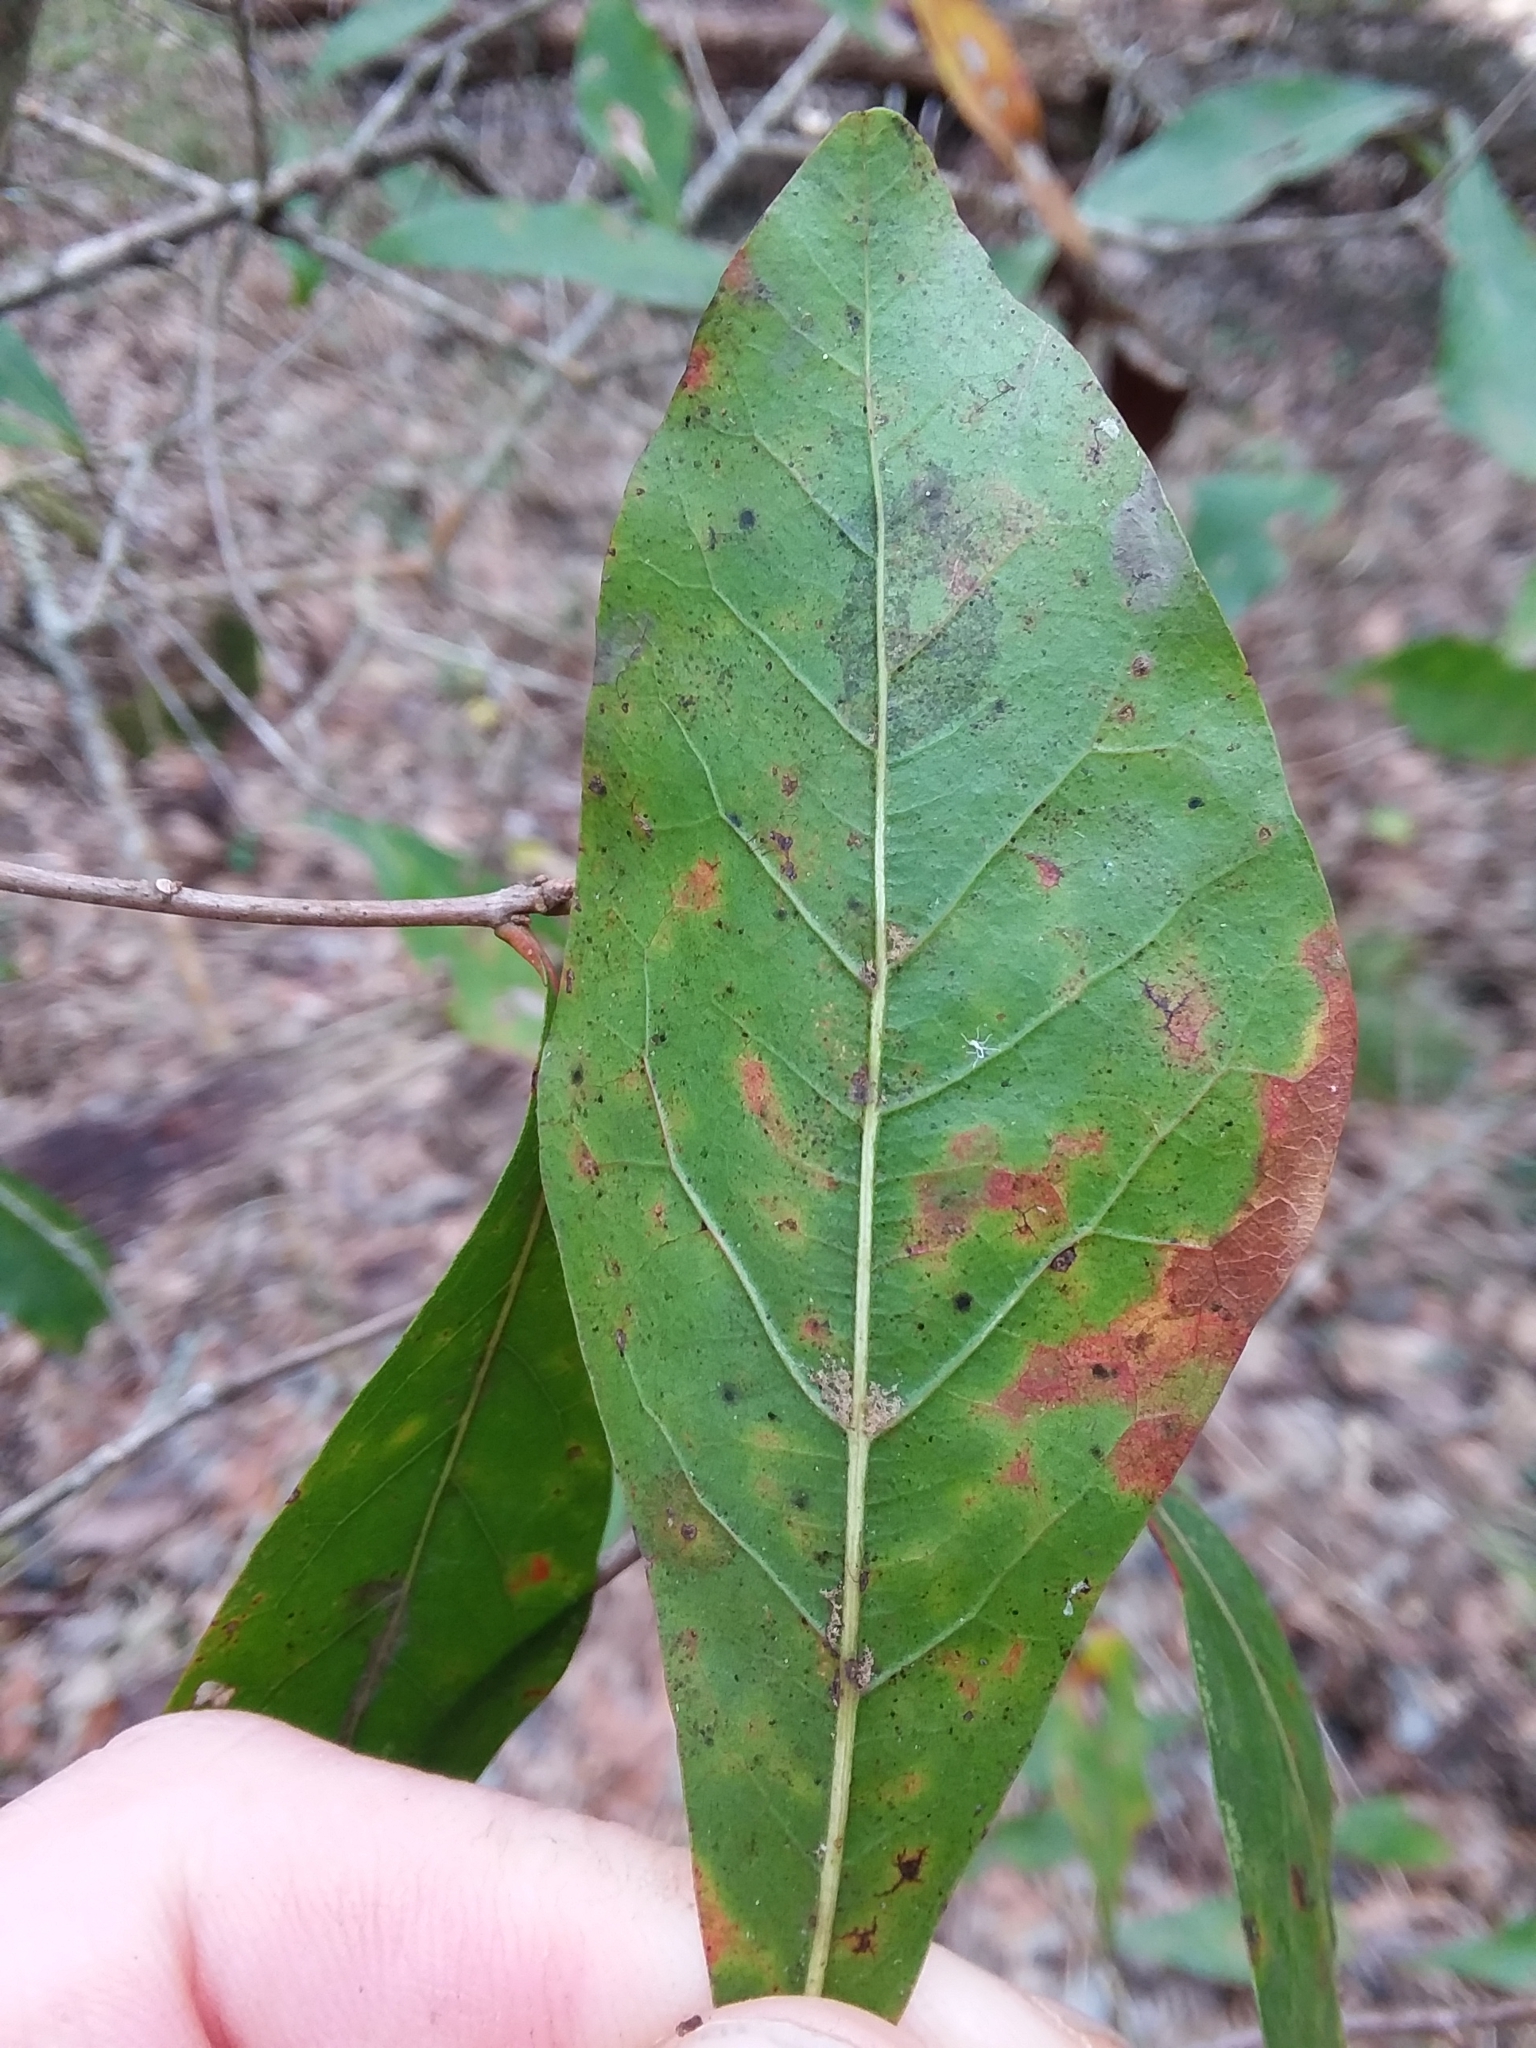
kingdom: Plantae
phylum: Tracheophyta
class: Magnoliopsida
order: Fagales
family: Fagaceae
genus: Quercus
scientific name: Quercus laurifolia
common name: Swamp laurel oak
